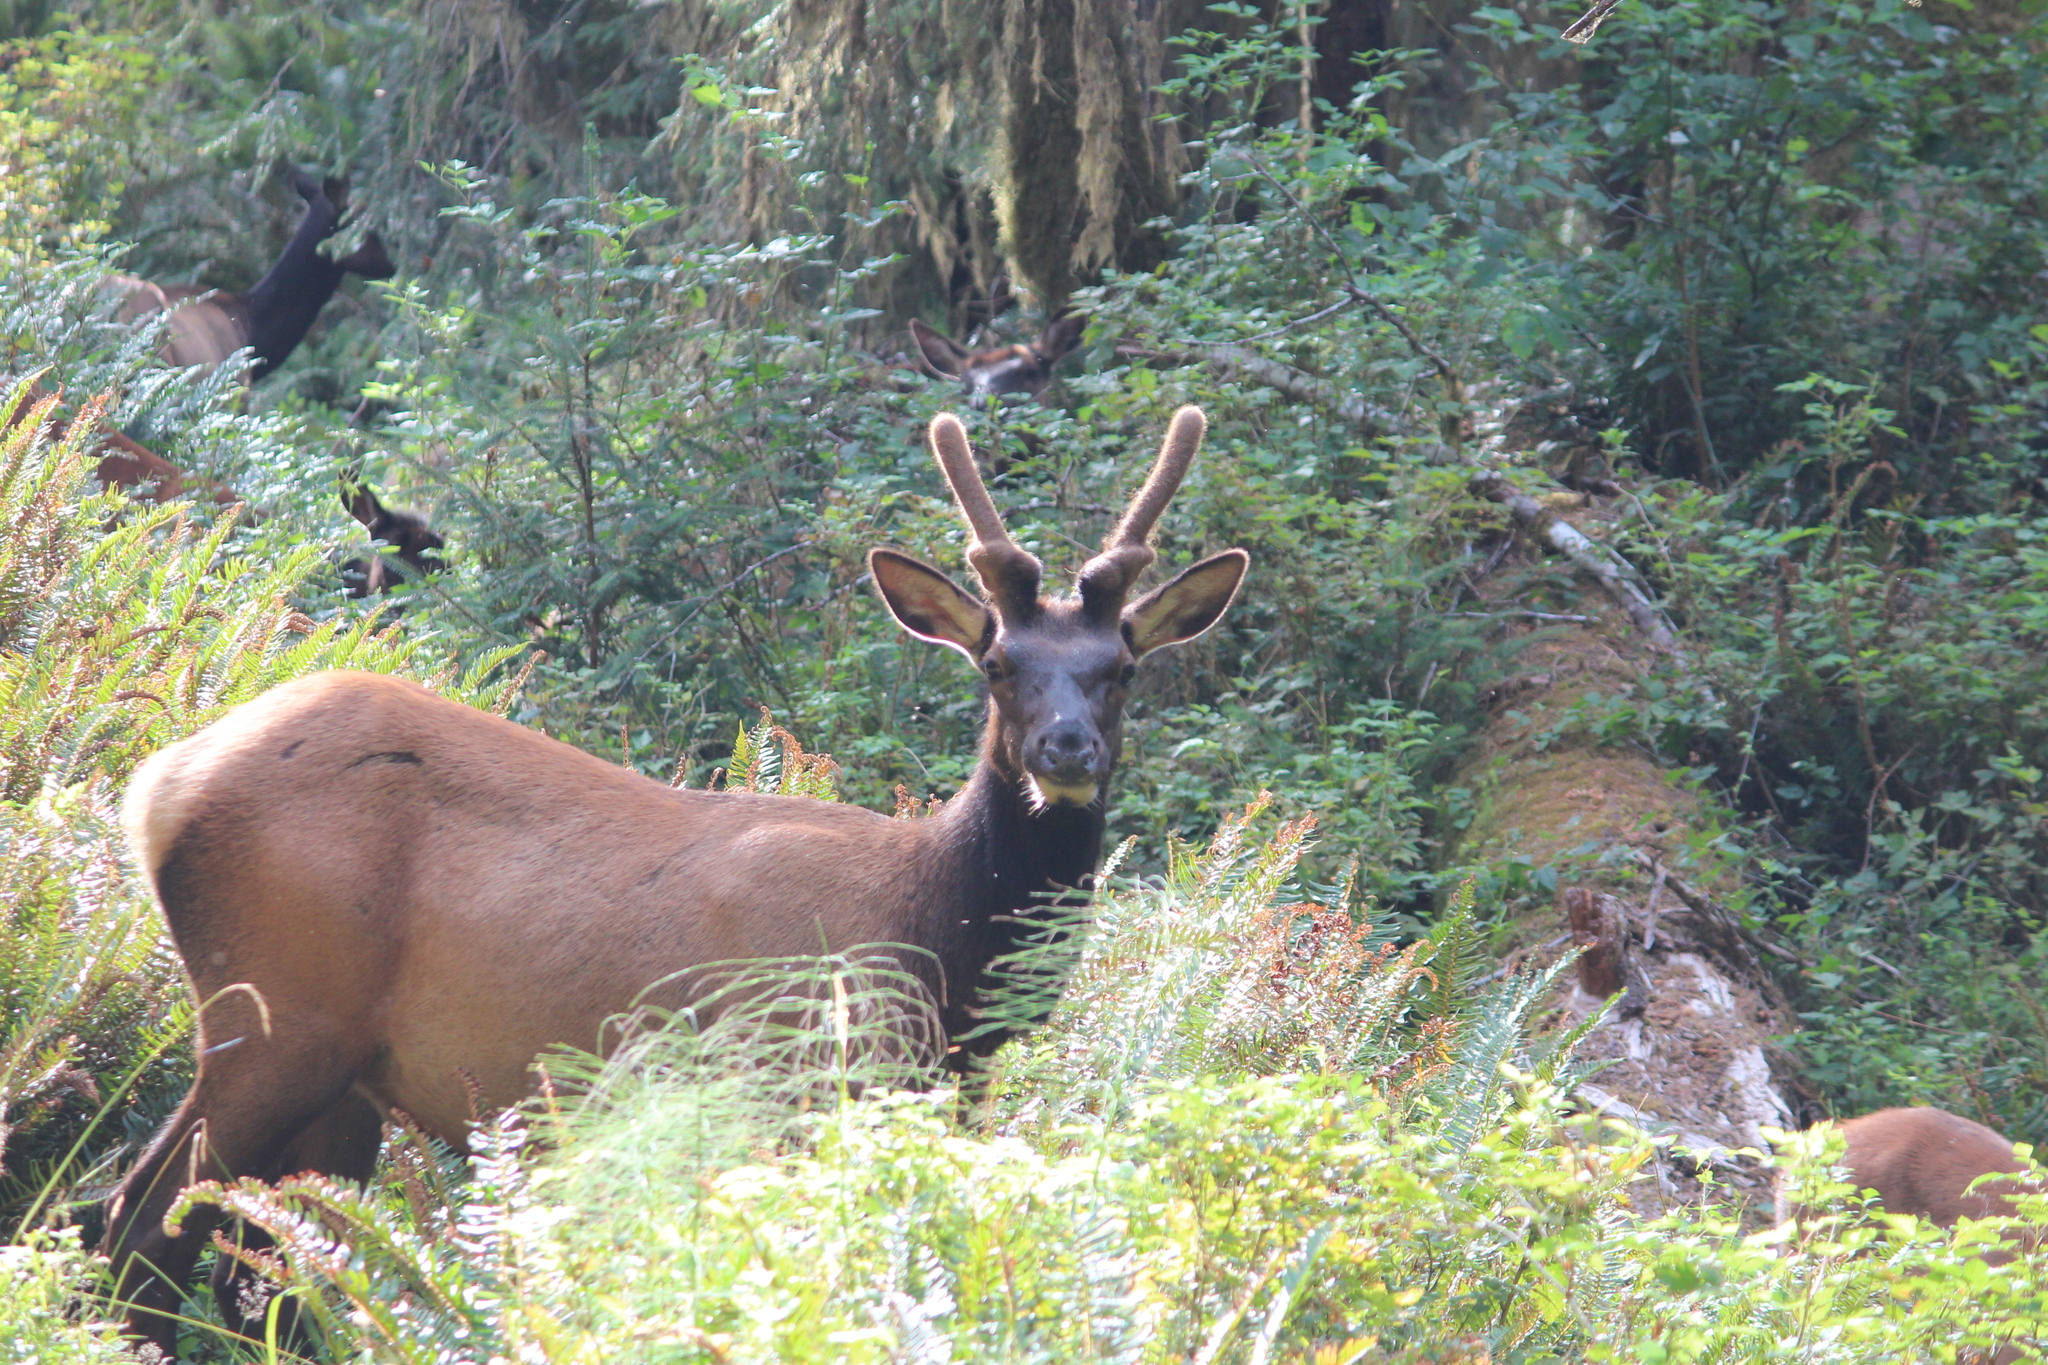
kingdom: Animalia
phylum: Chordata
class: Mammalia
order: Artiodactyla
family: Cervidae
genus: Cervus
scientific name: Cervus elaphus
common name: Red deer
